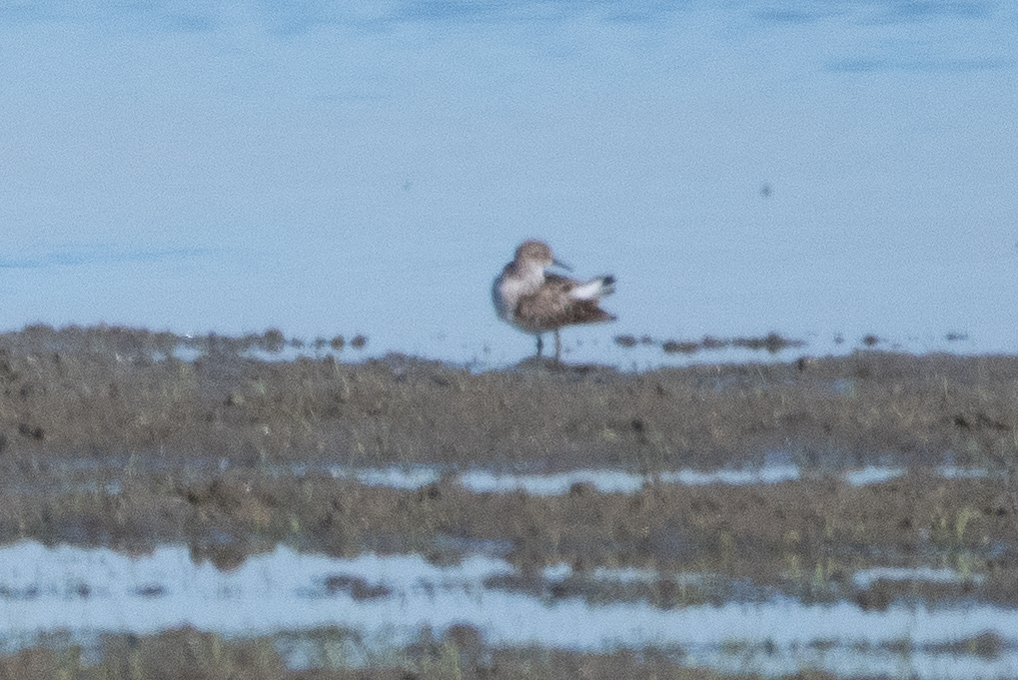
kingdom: Animalia
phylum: Chordata
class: Aves
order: Charadriiformes
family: Scolopacidae
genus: Calidris
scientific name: Calidris minutilla
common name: Least sandpiper
